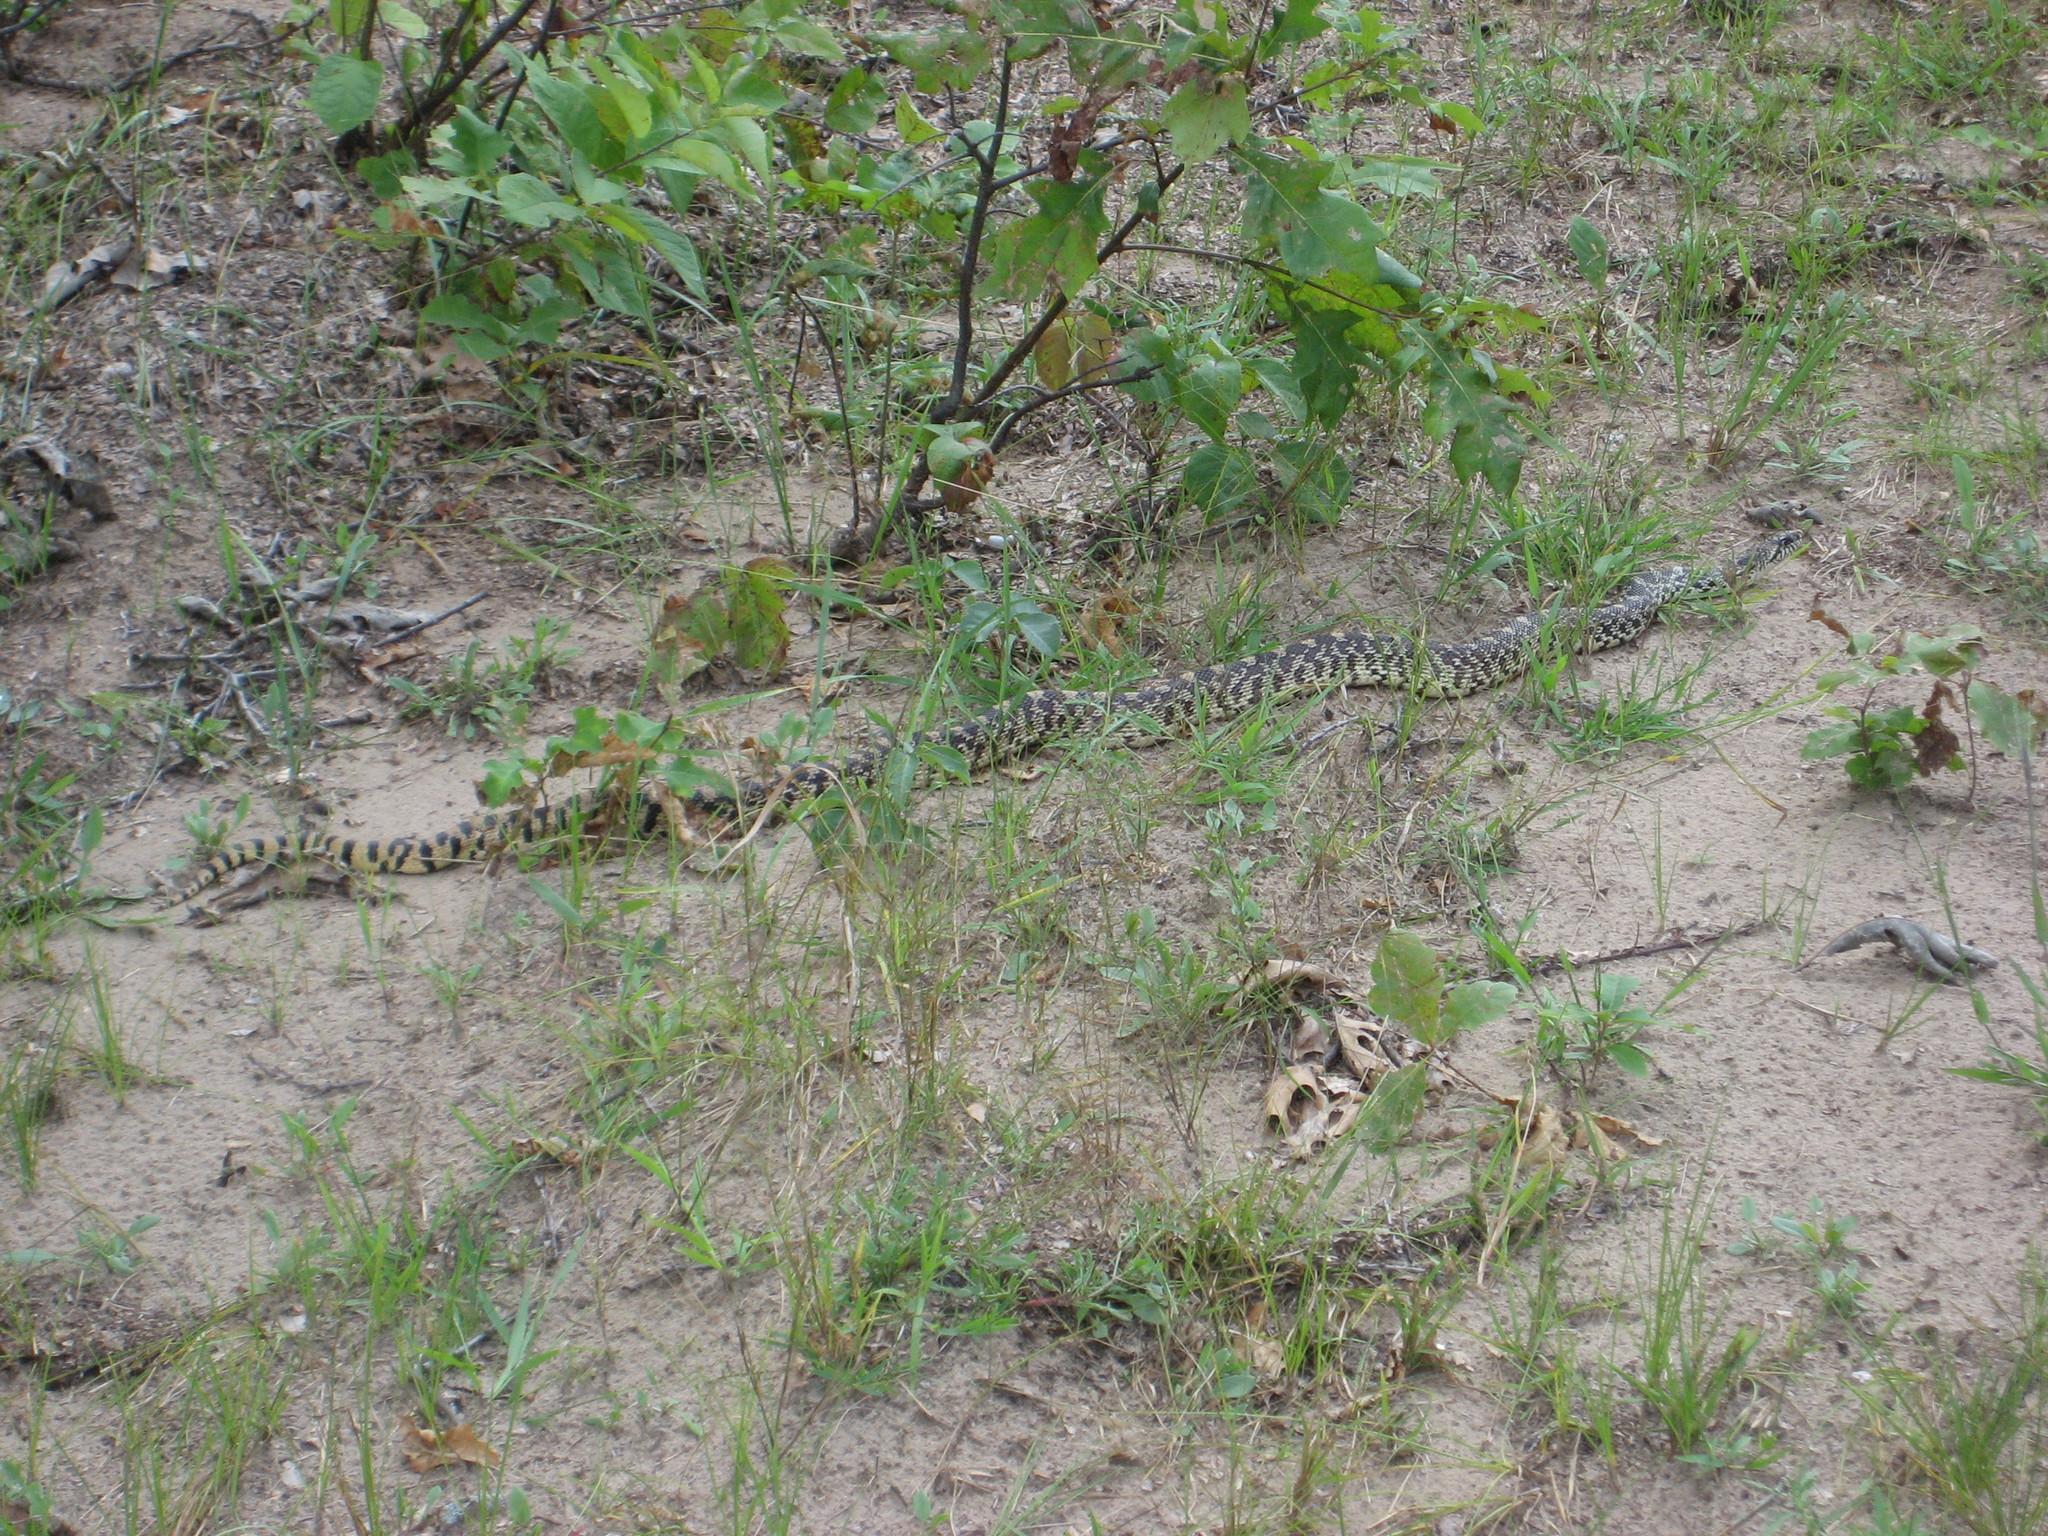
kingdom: Animalia
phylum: Chordata
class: Squamata
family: Colubridae
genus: Pituophis
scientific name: Pituophis catenifer
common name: Gopher snake
